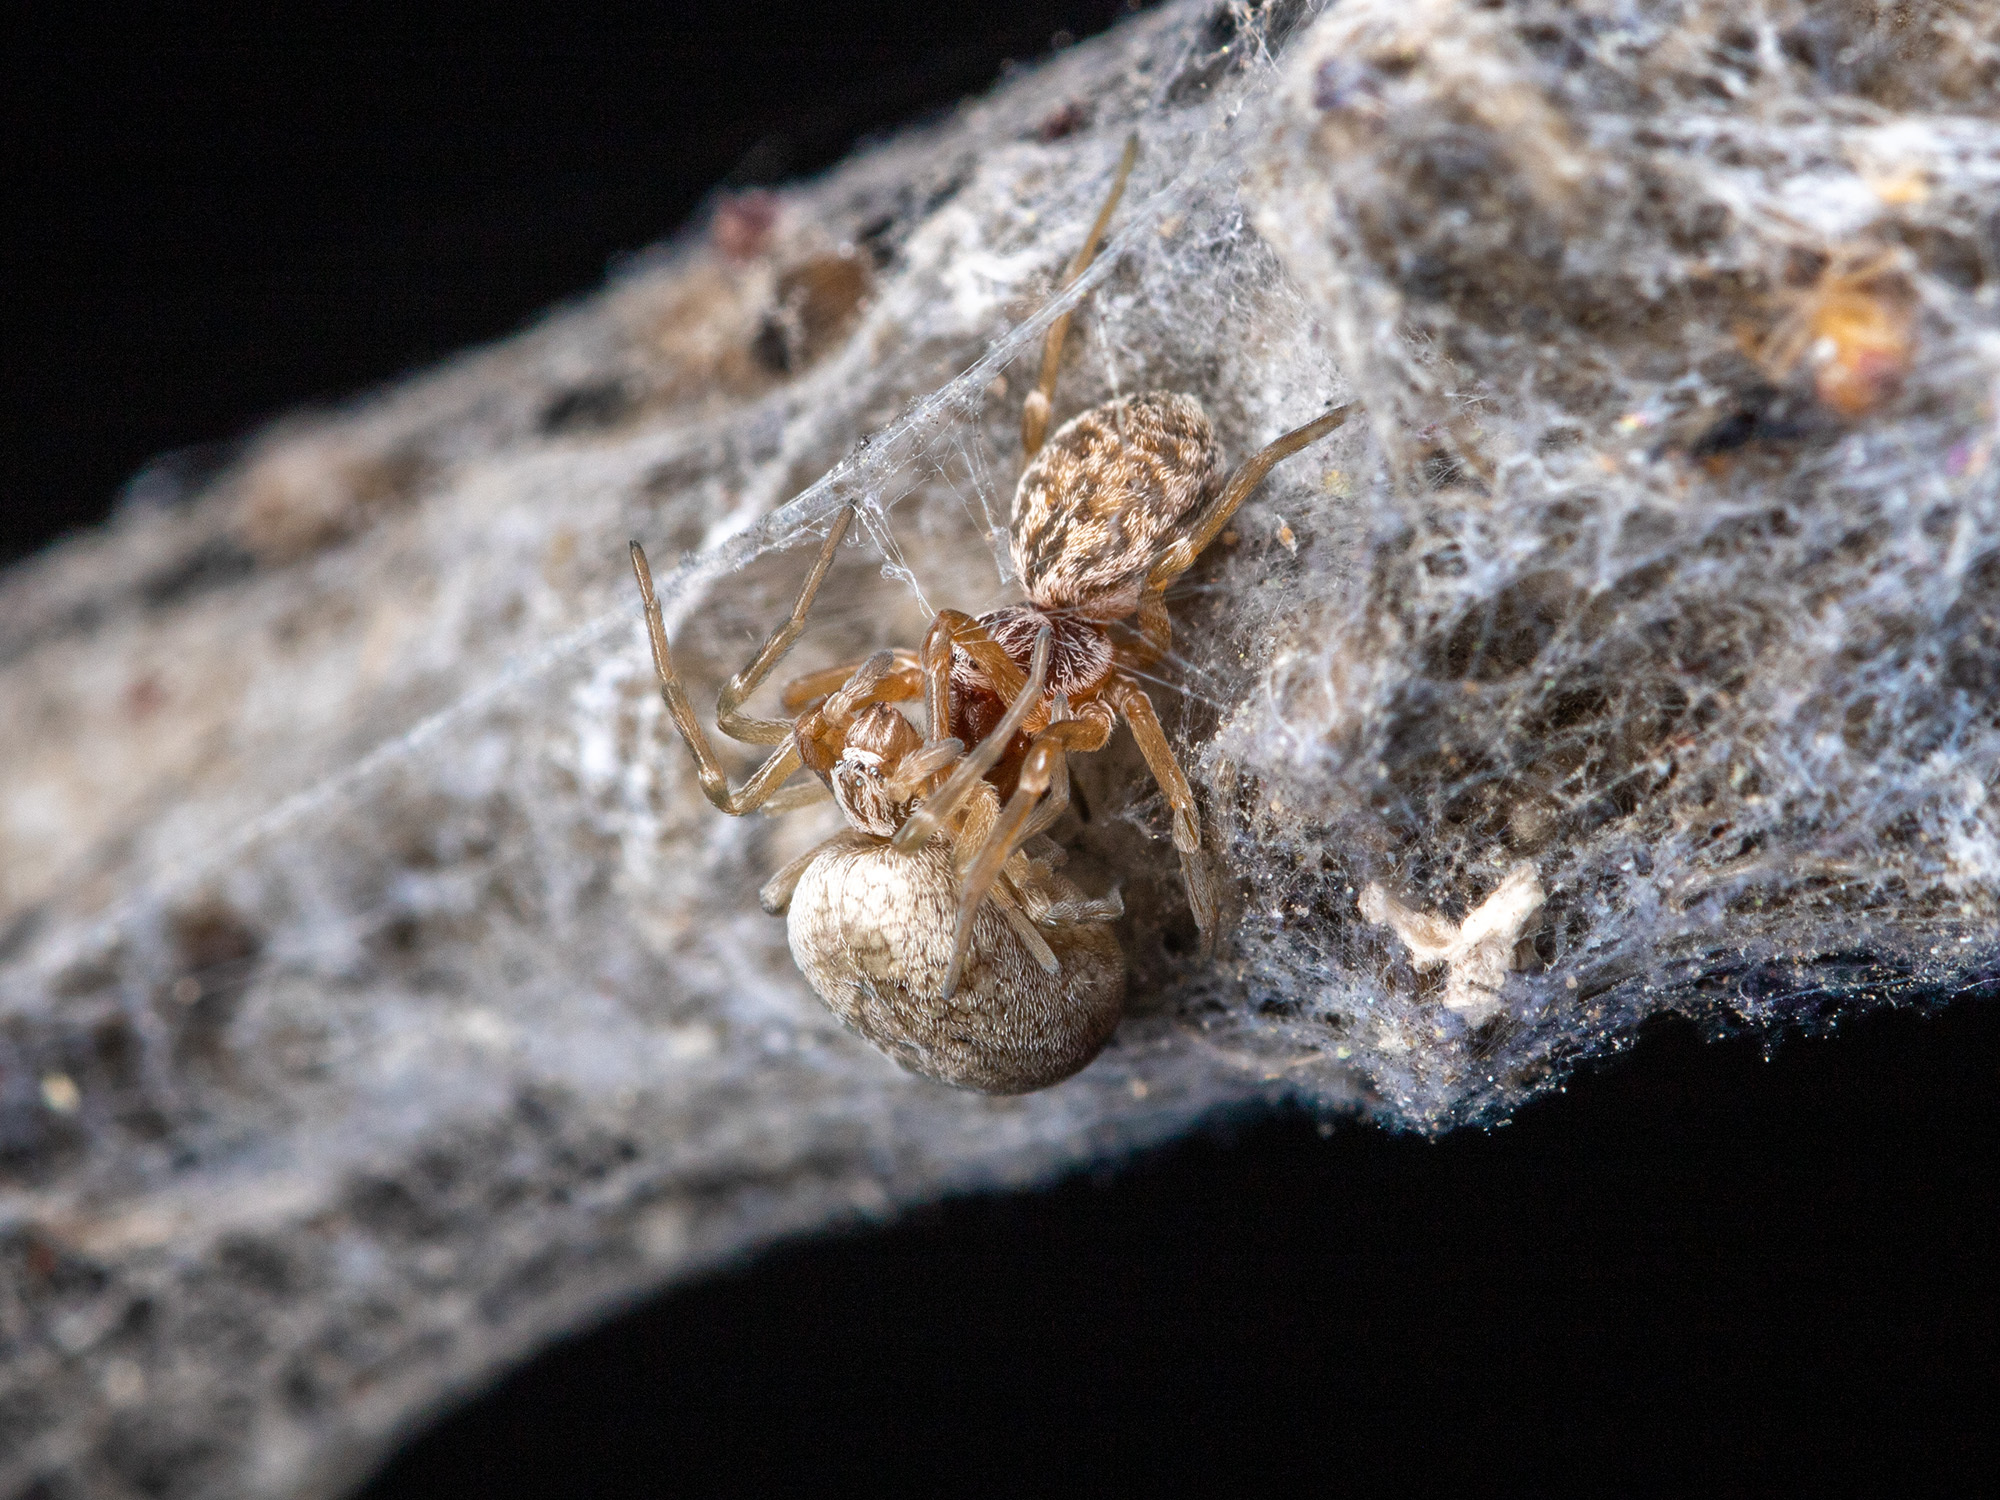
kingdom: Animalia
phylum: Arthropoda
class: Arachnida
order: Araneae
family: Dictynidae
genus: Dictynomorpha
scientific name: Dictynomorpha strandi
